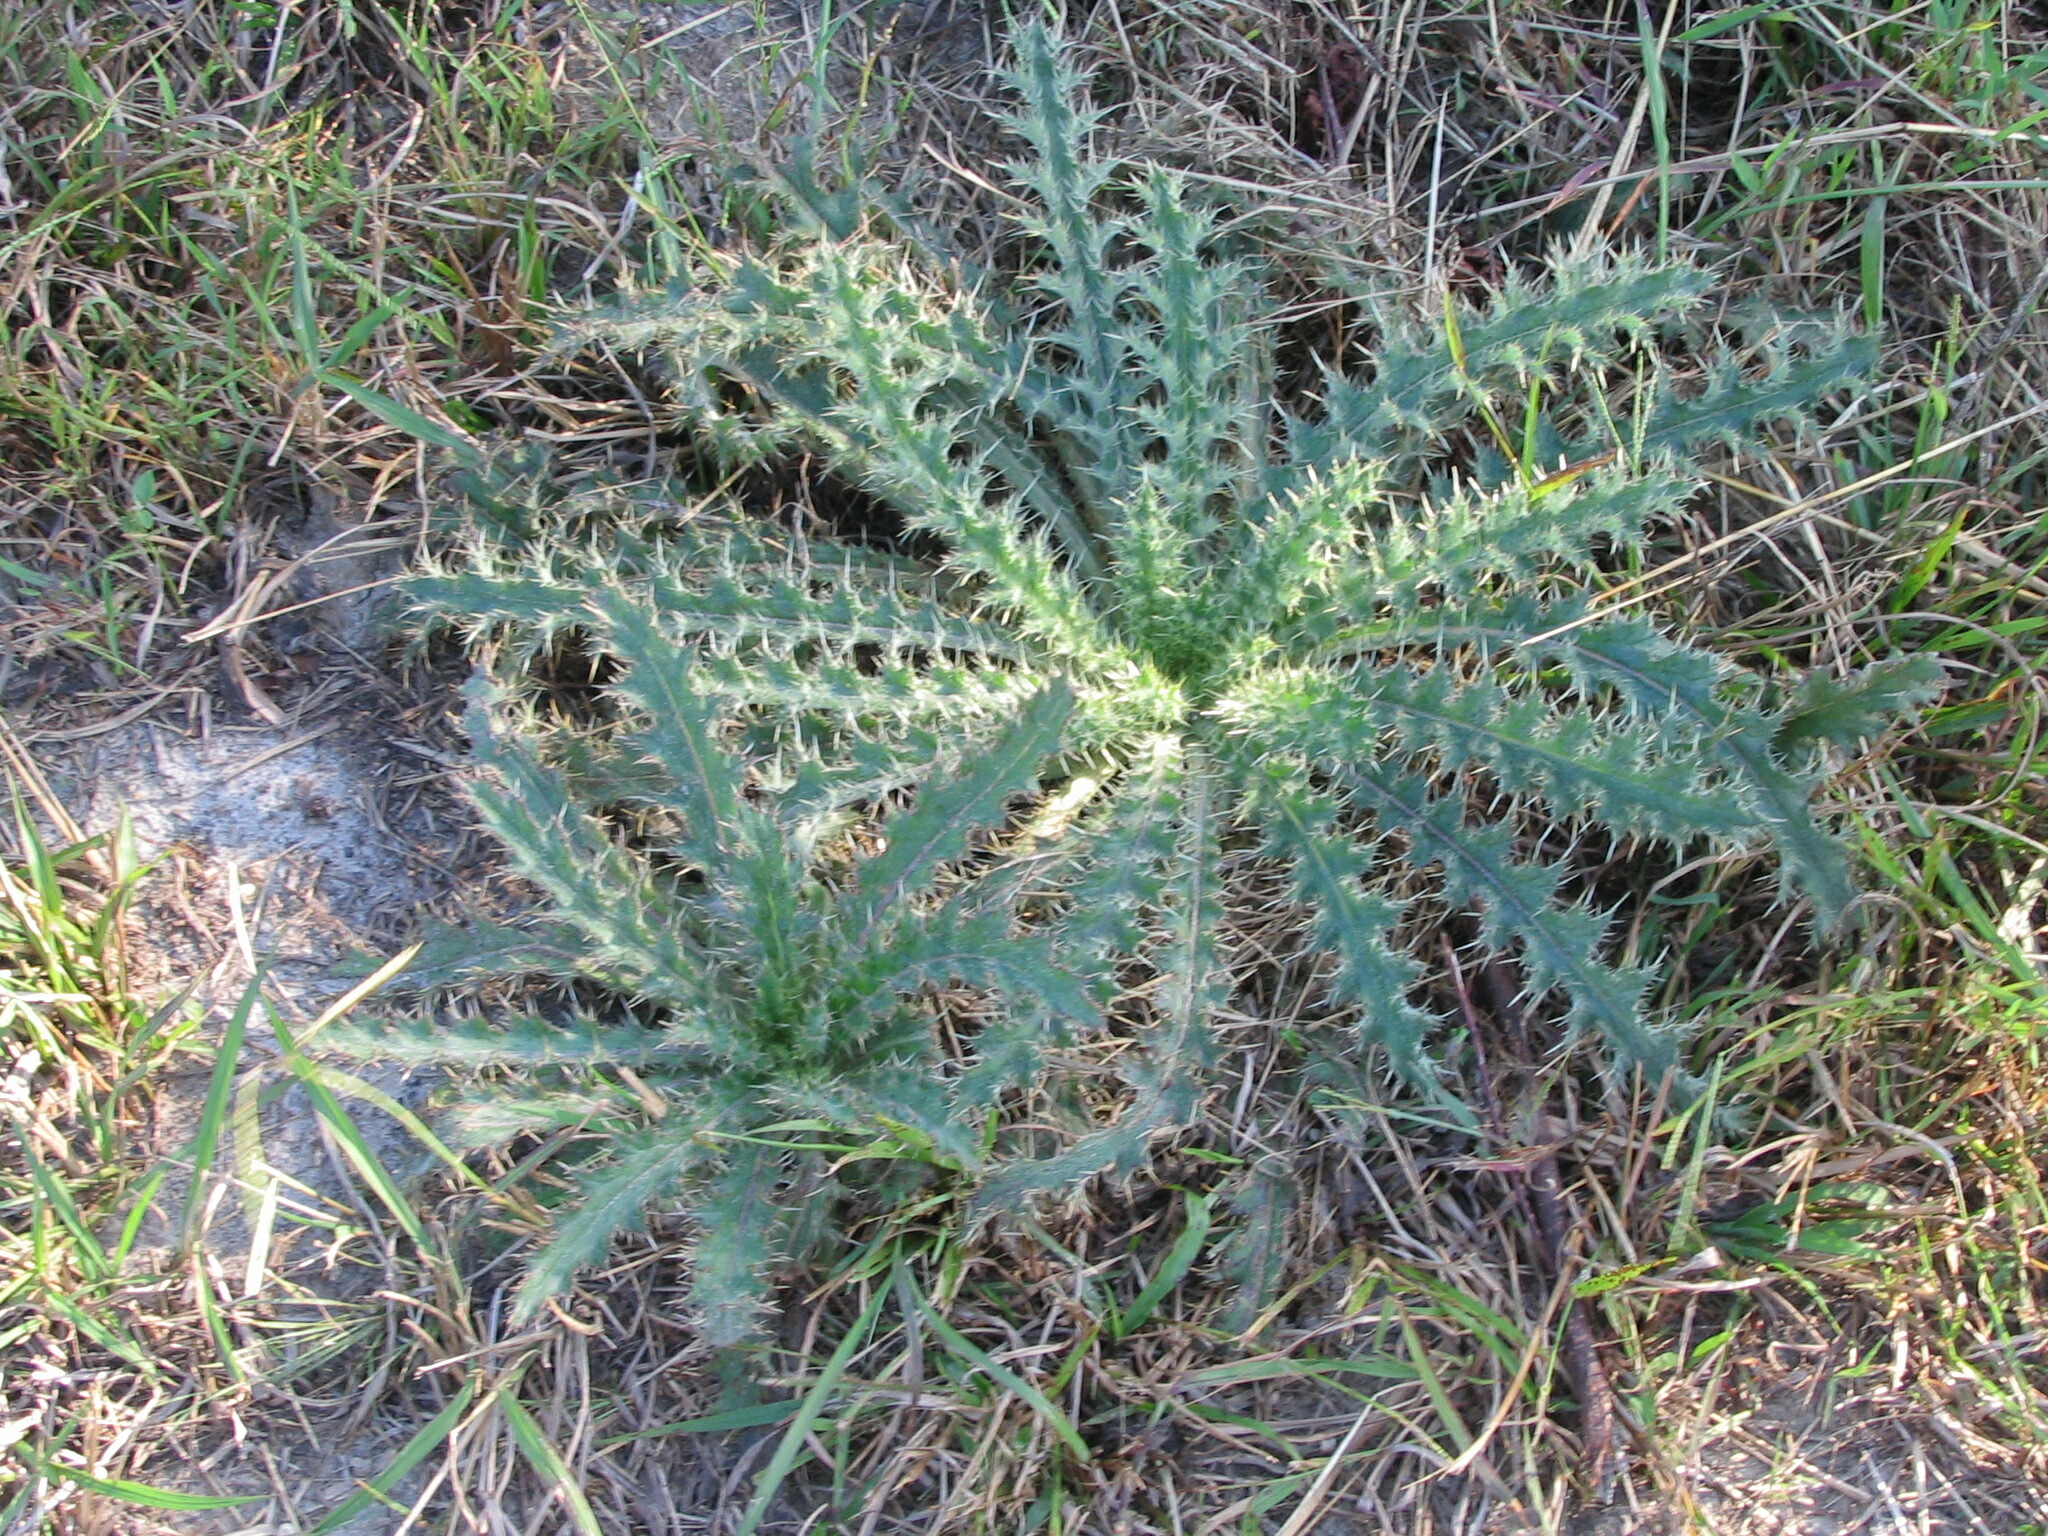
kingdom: Plantae
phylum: Tracheophyta
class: Magnoliopsida
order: Asterales
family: Asteraceae
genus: Cirsium
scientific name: Cirsium horridulum
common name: Bristly thistle
